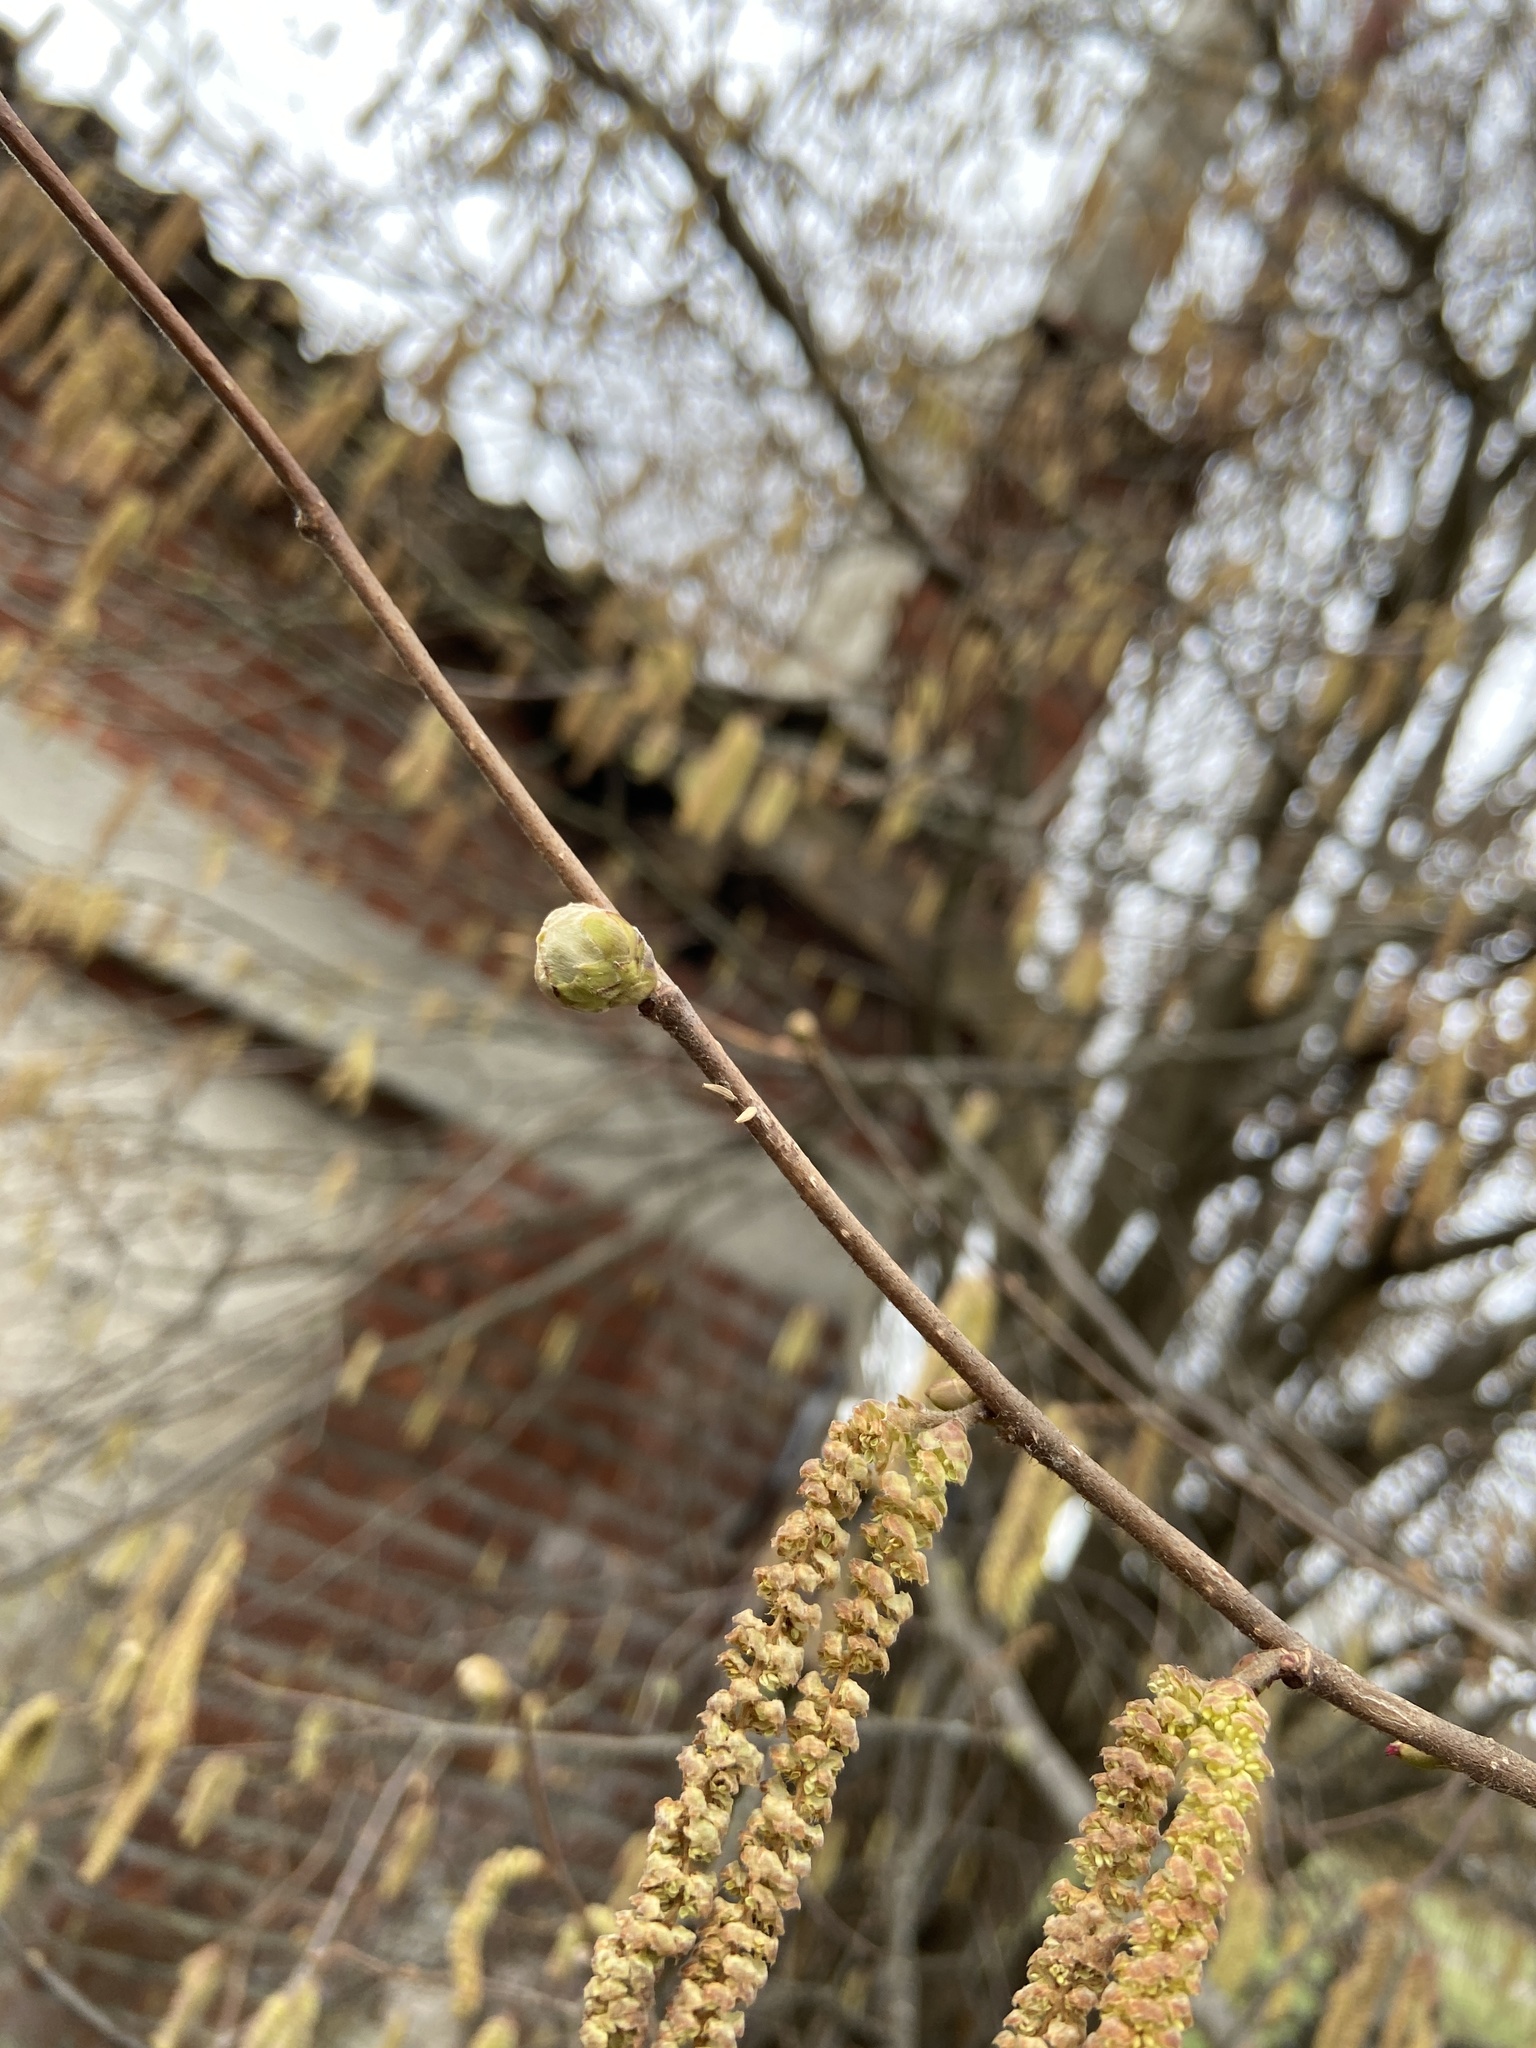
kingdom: Animalia
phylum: Arthropoda
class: Arachnida
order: Trombidiformes
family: Phytoptidae
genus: Phytoptus
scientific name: Phytoptus avellanae
